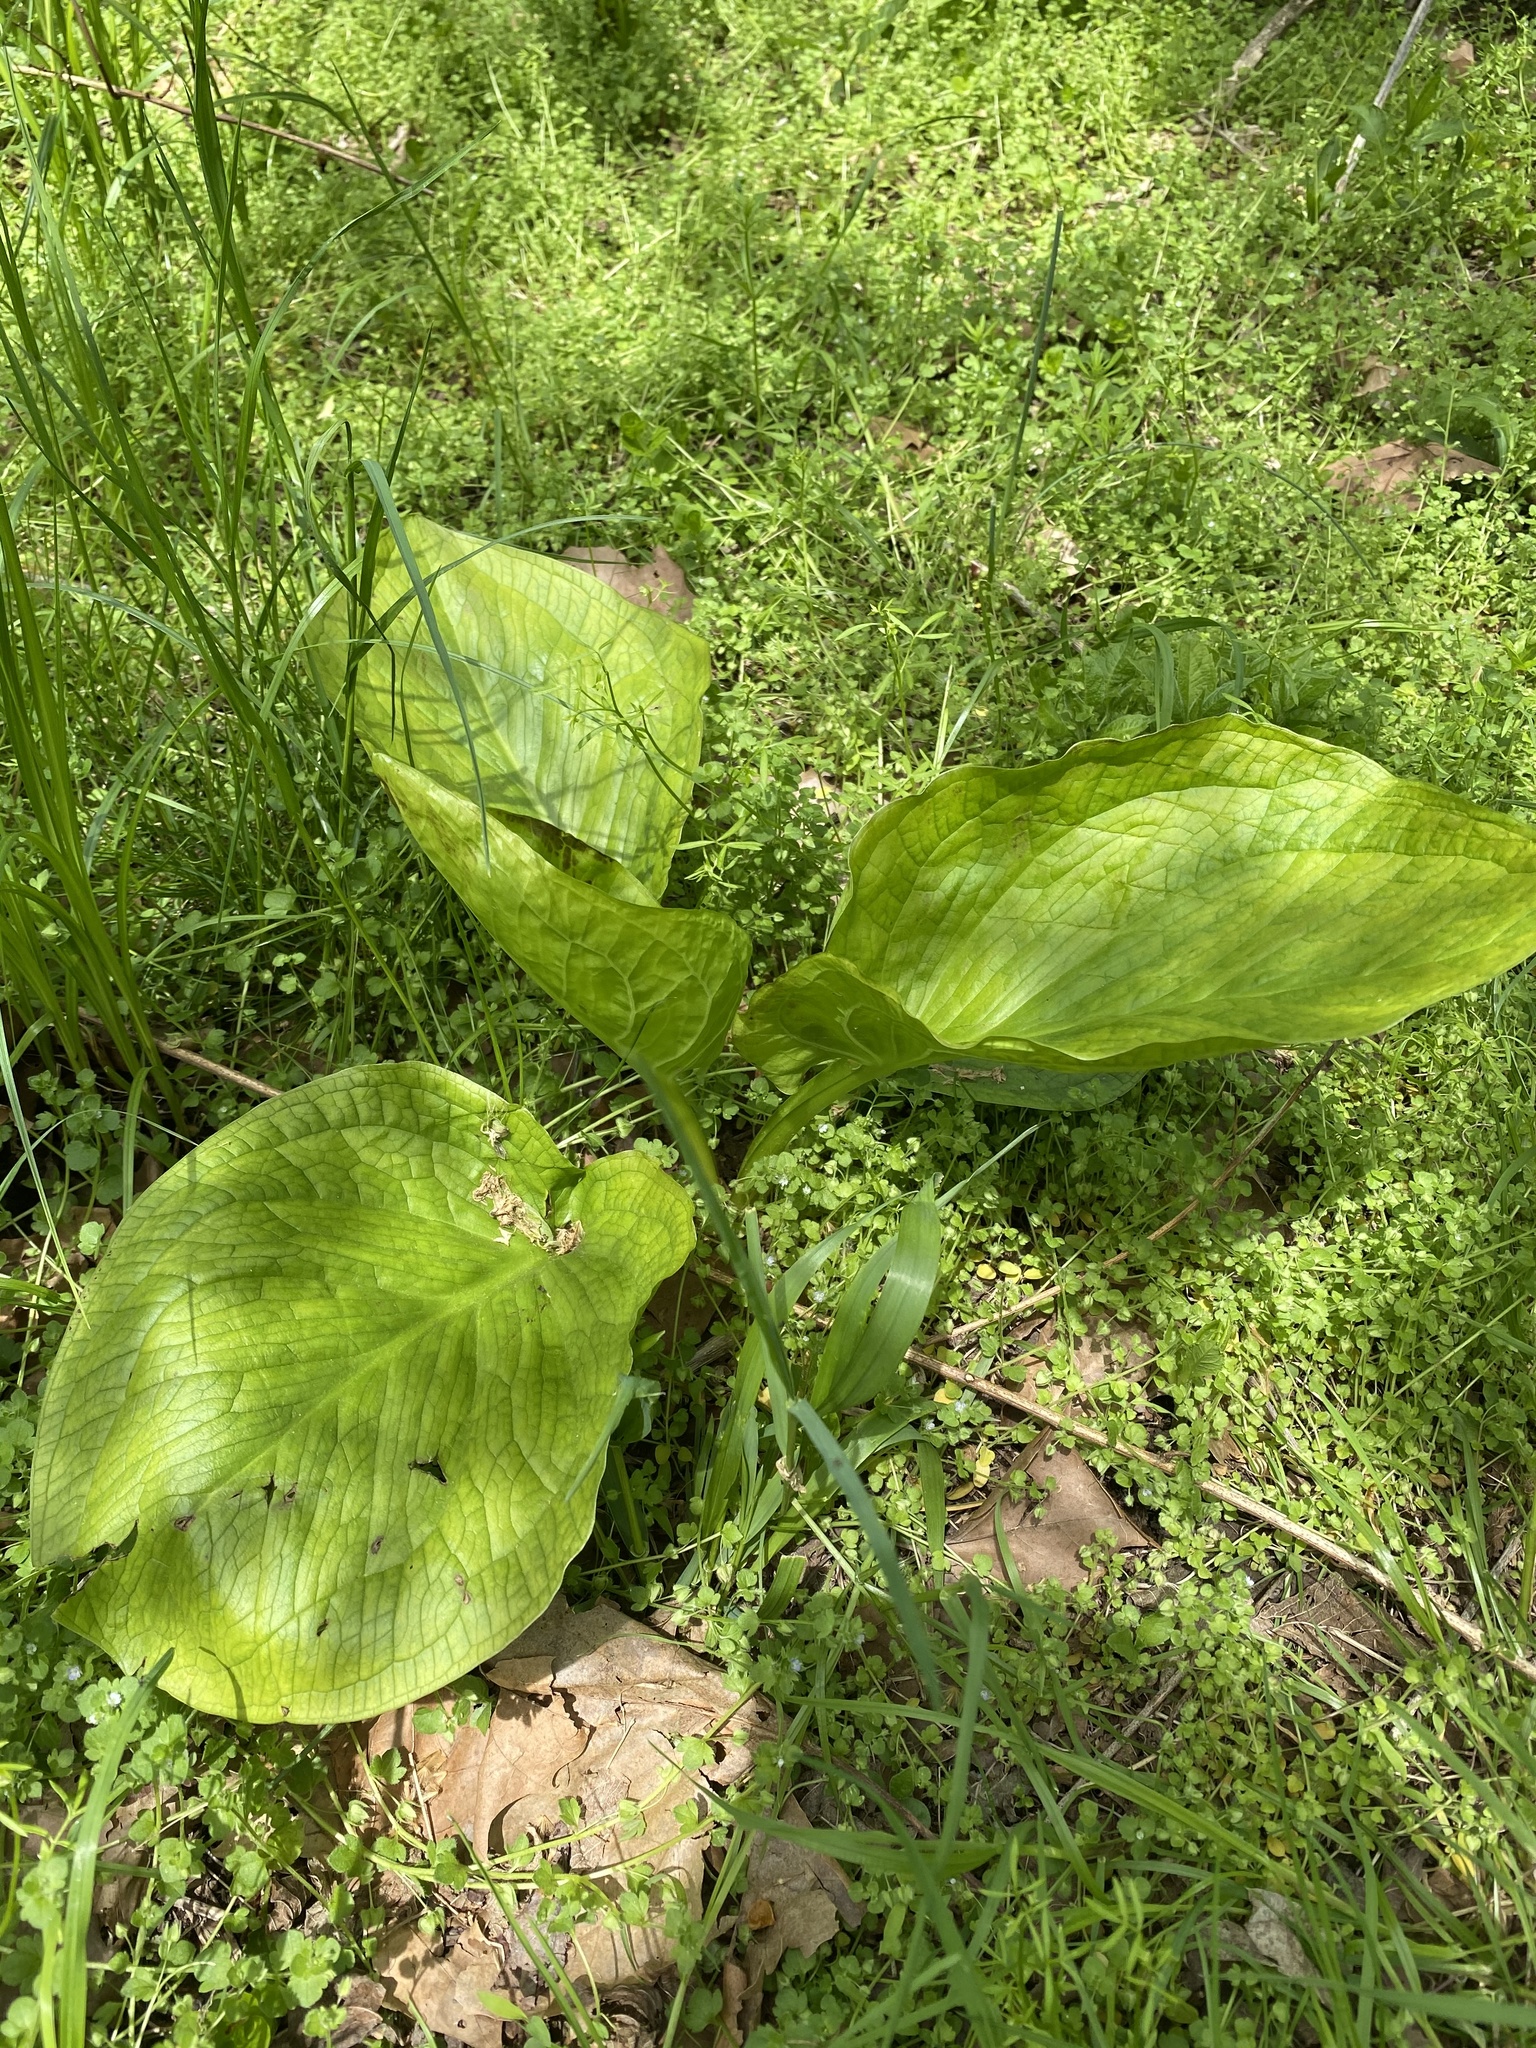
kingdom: Plantae
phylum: Tracheophyta
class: Liliopsida
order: Alismatales
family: Araceae
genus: Symplocarpus
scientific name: Symplocarpus foetidus
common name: Eastern skunk cabbage
